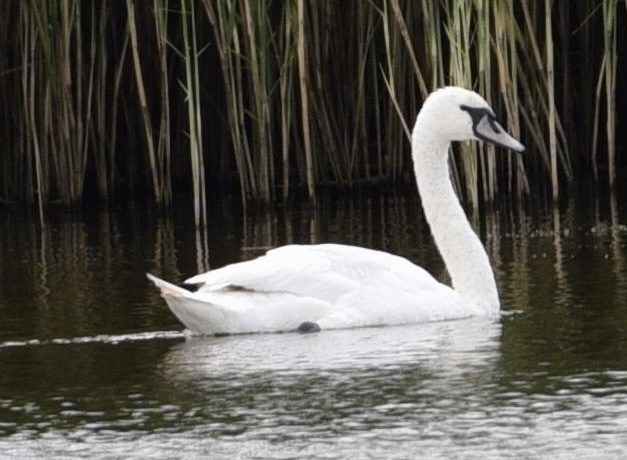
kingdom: Animalia
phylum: Chordata
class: Aves
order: Anseriformes
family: Anatidae
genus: Cygnus
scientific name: Cygnus olor
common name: Mute swan
